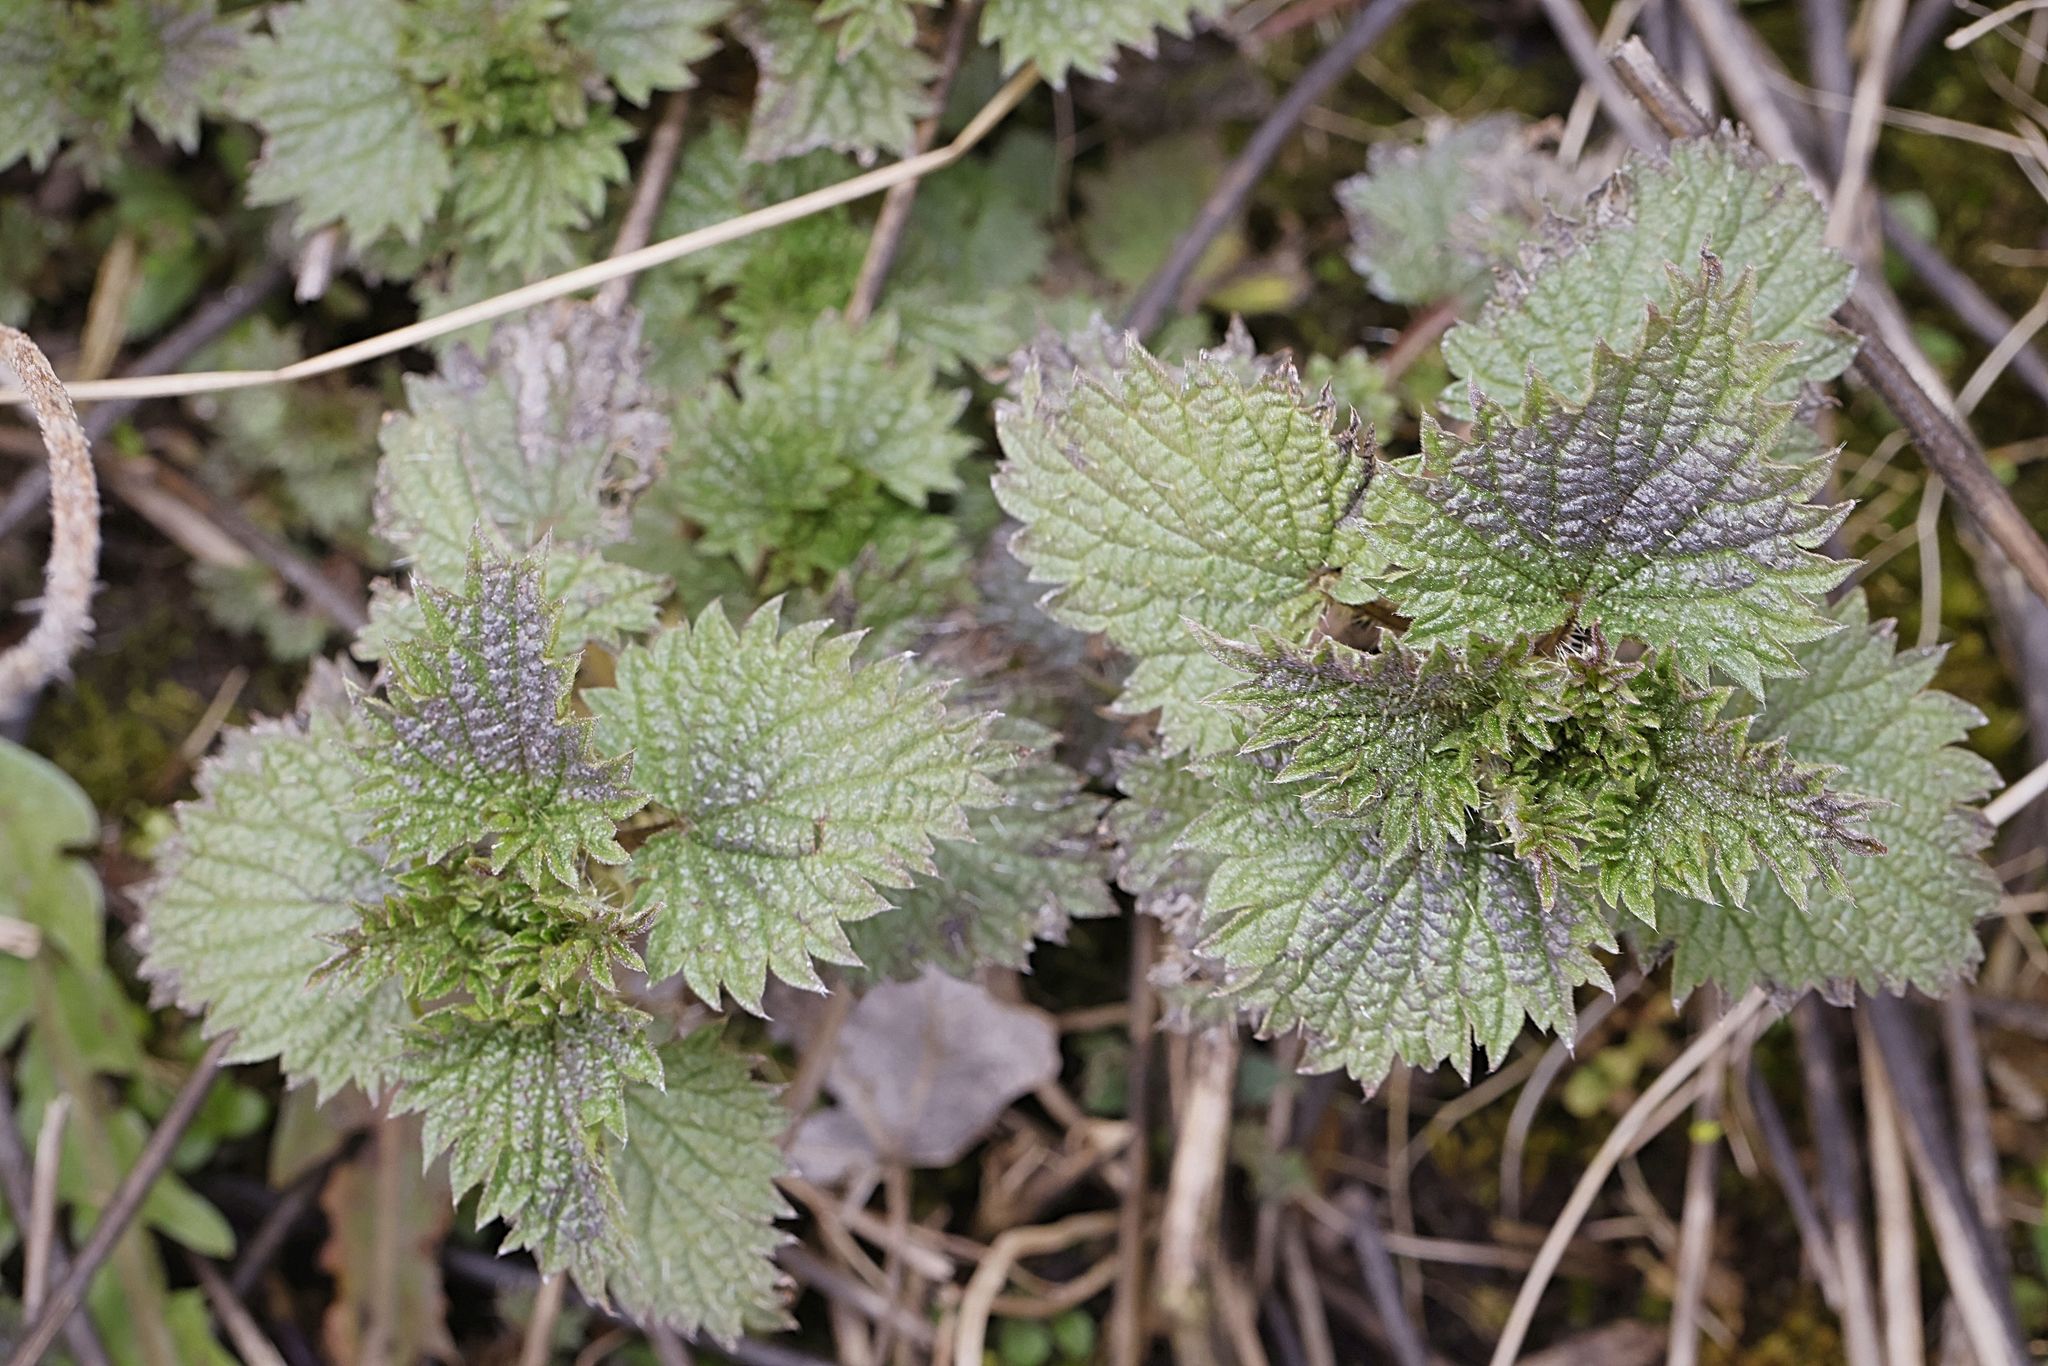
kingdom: Plantae
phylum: Tracheophyta
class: Magnoliopsida
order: Rosales
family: Urticaceae
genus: Urtica
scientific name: Urtica dioica
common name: Common nettle
